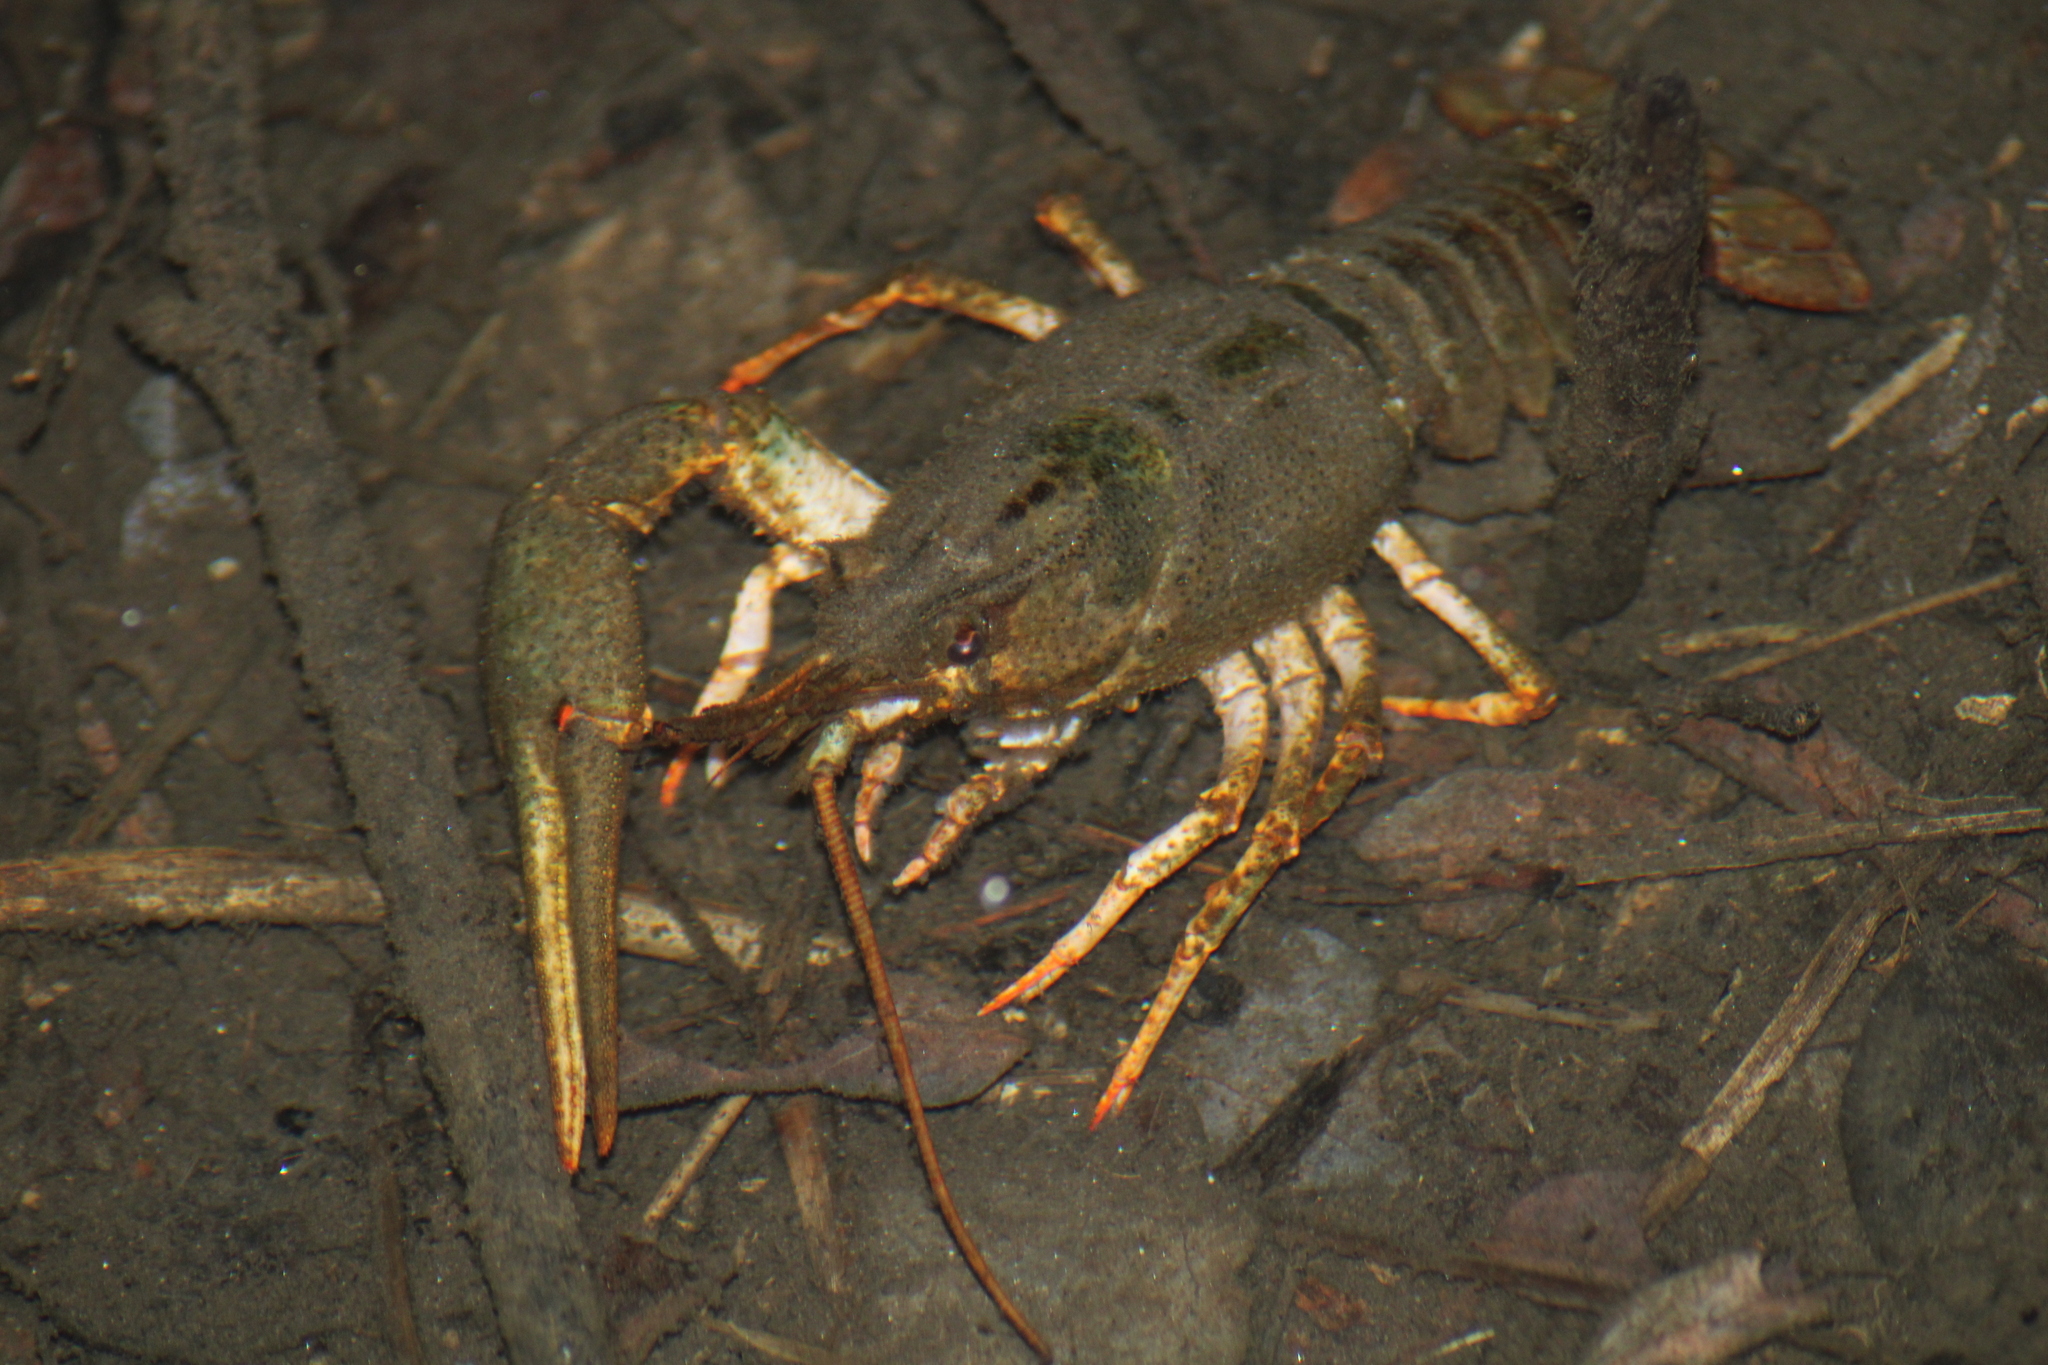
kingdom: Animalia
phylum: Arthropoda
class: Malacostraca
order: Decapoda
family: Astacidae
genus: Pontastacus
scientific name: Pontastacus leptodactylus
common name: Danube crayfish
